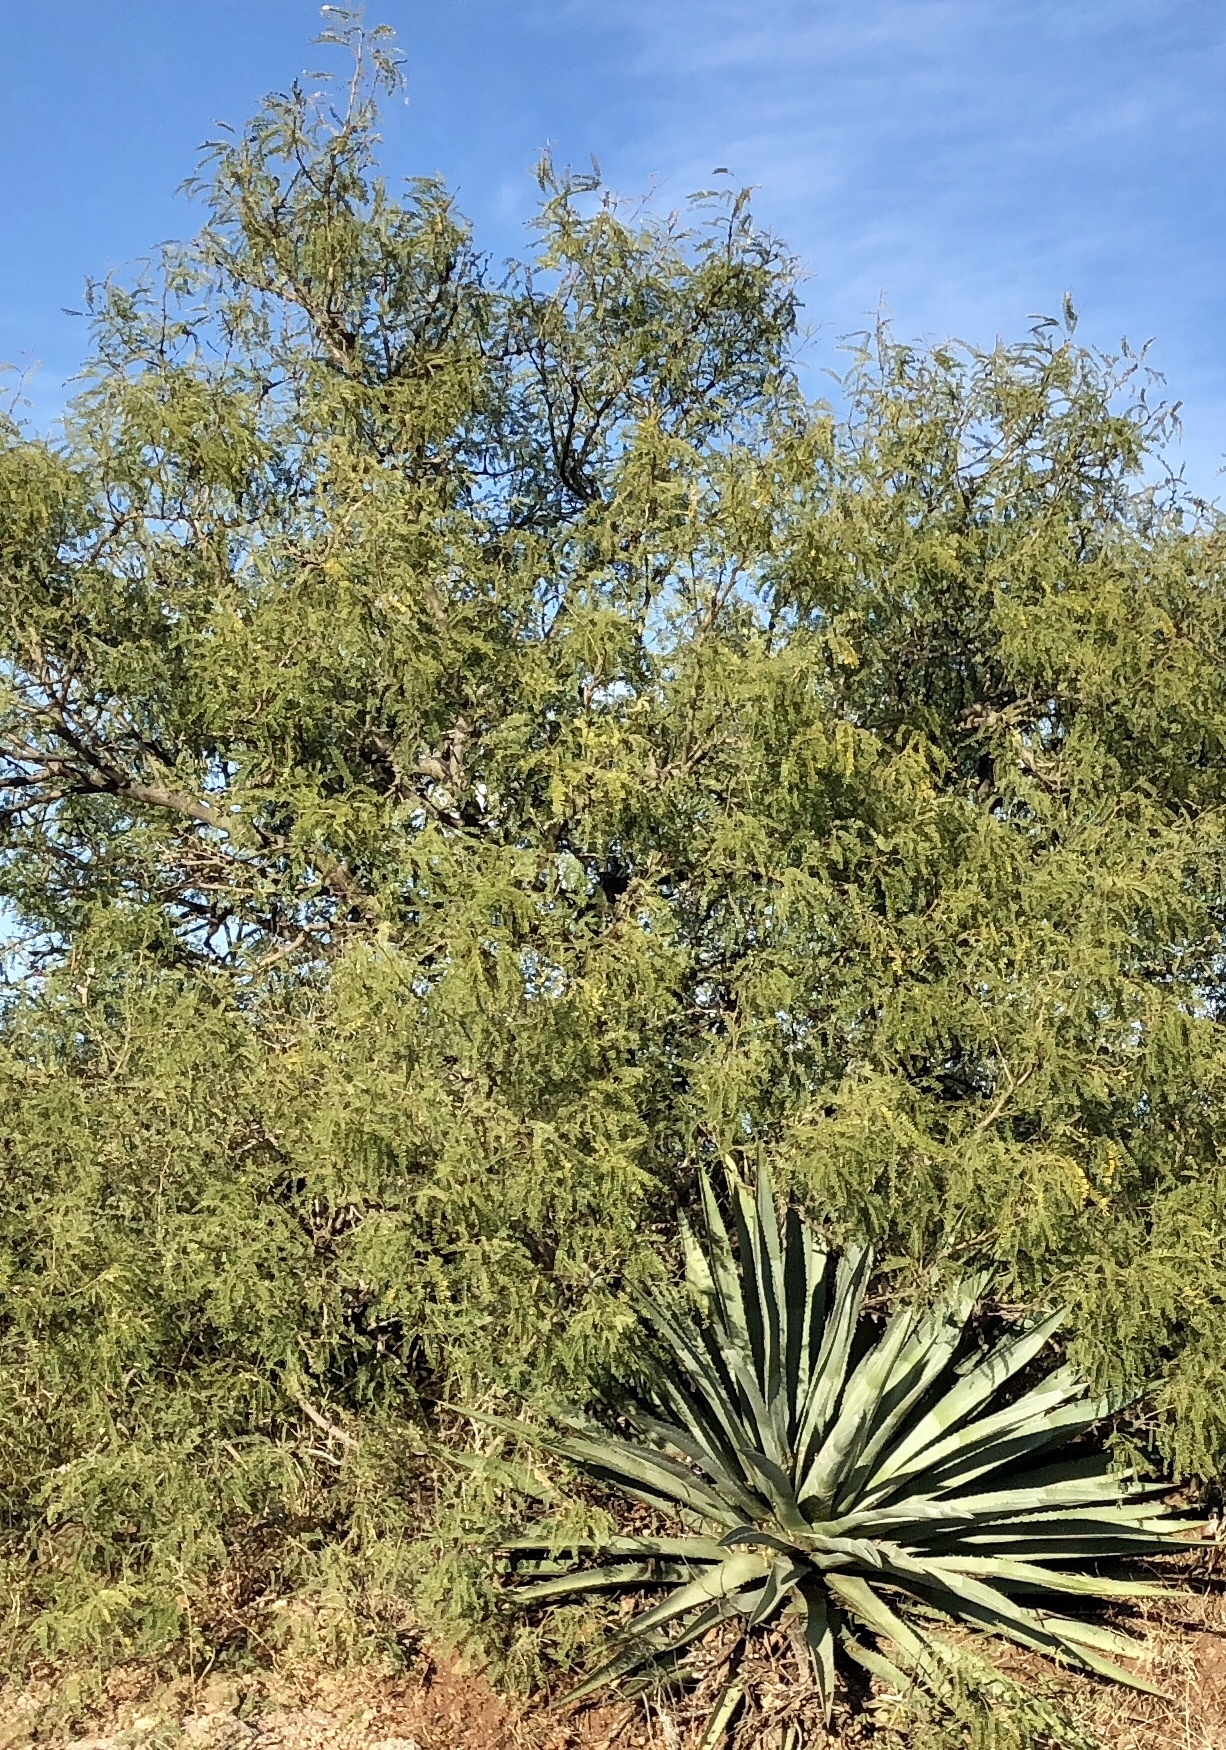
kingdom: Plantae
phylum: Tracheophyta
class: Magnoliopsida
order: Fabales
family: Fabaceae
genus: Prosopis
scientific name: Prosopis glandulosa
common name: Honey mesquite
